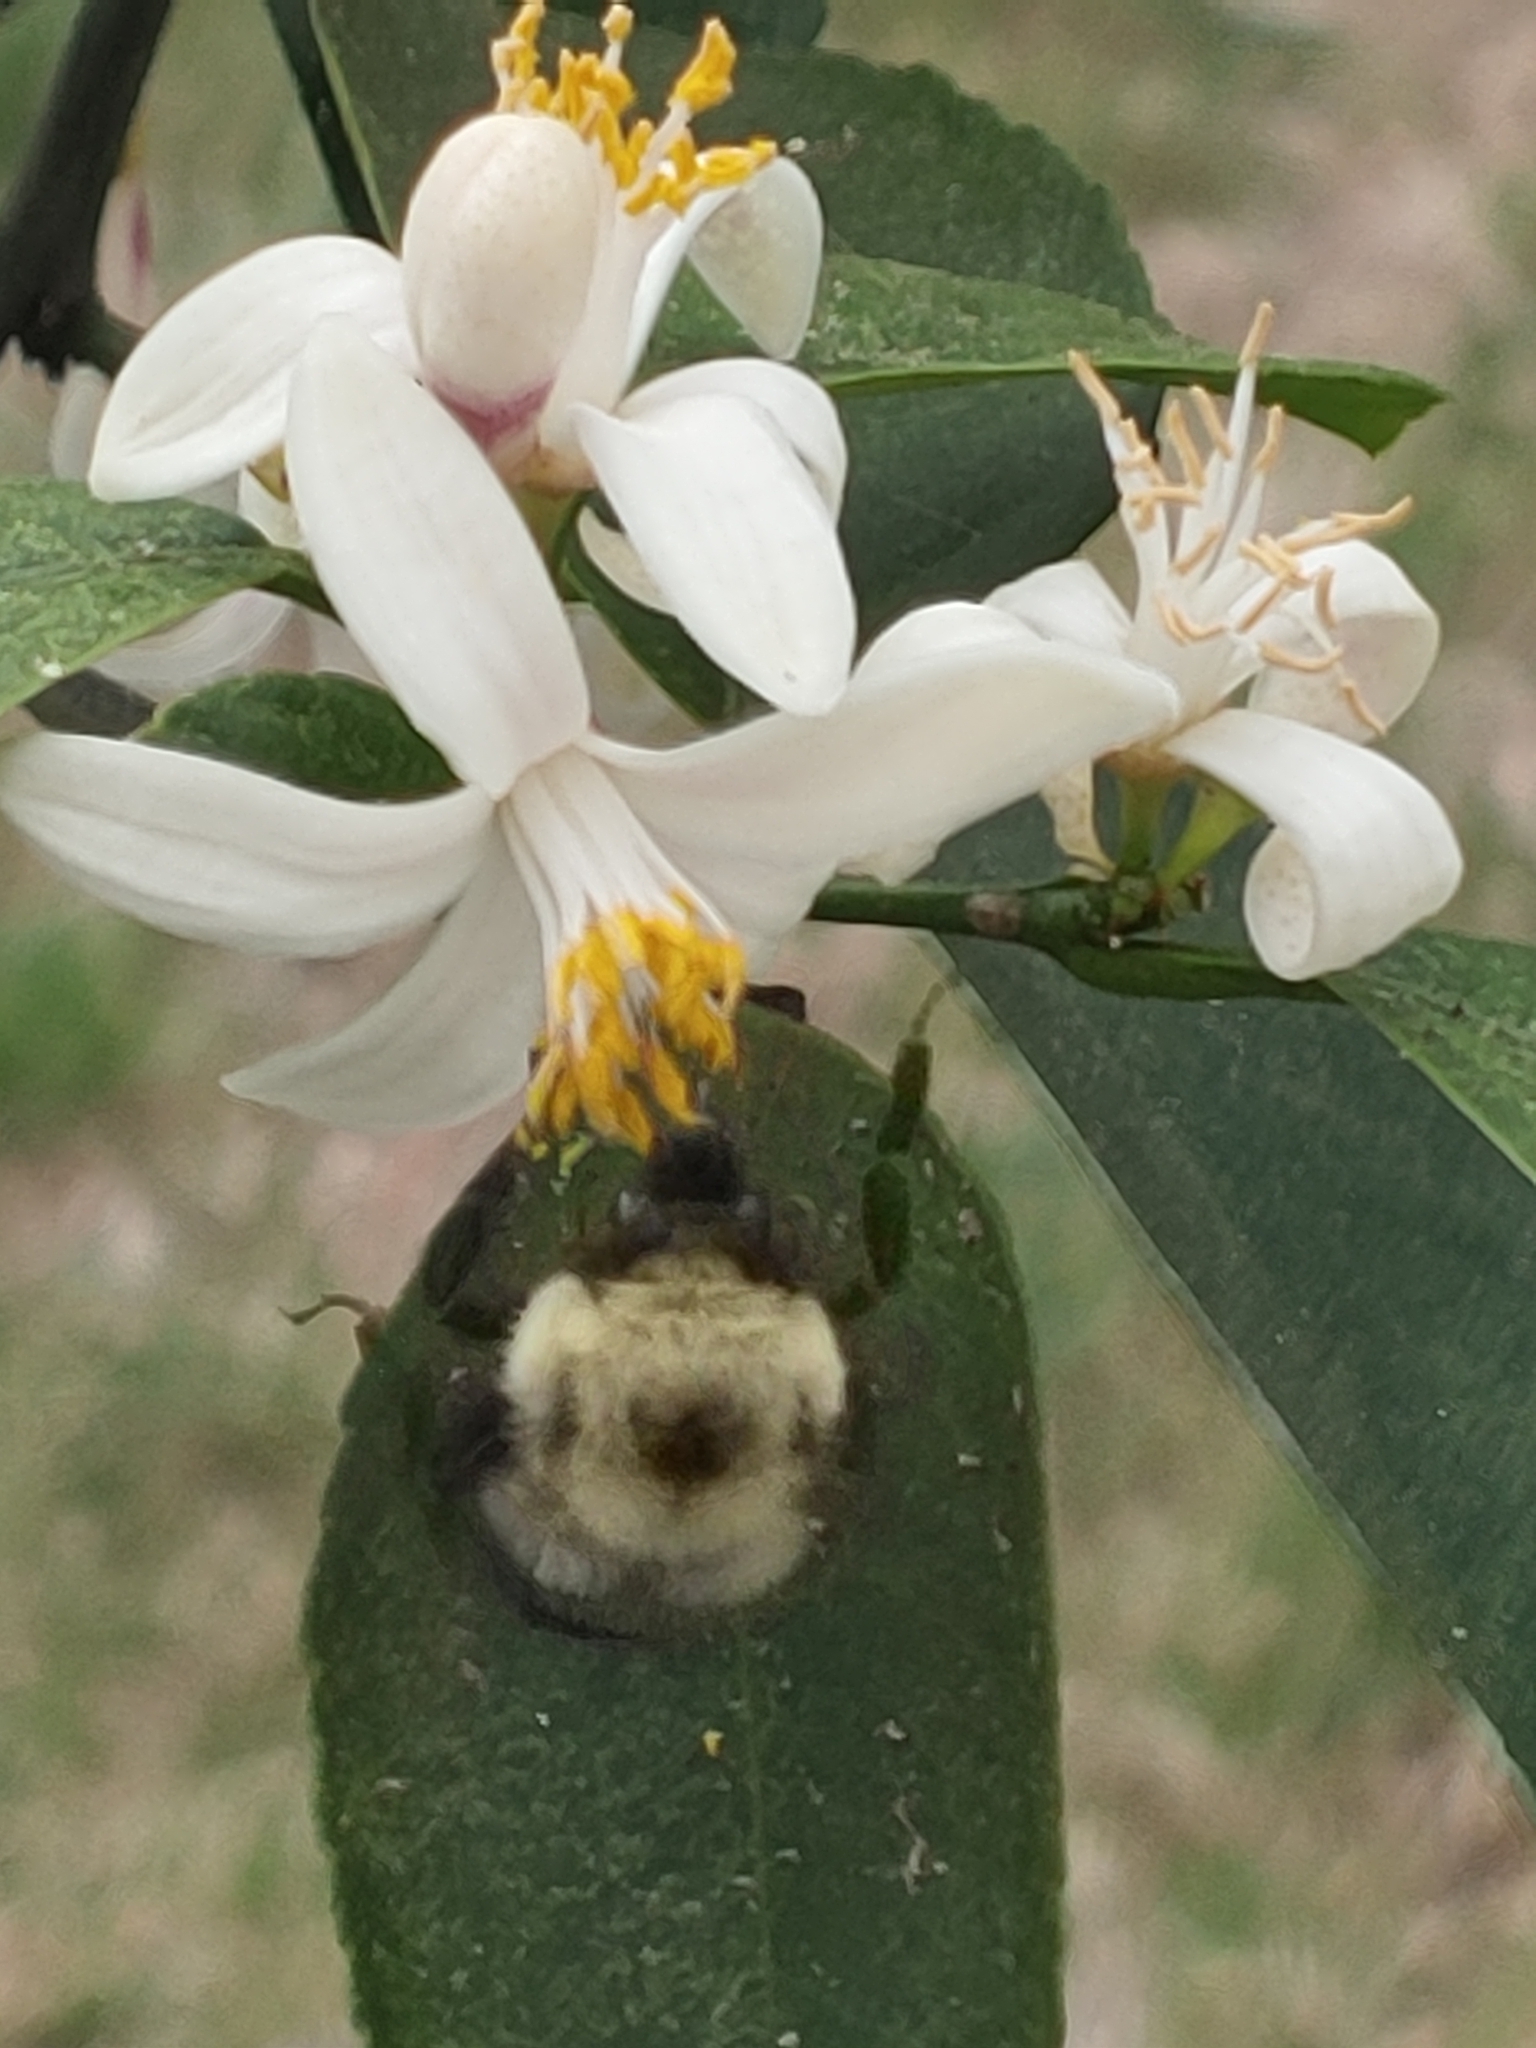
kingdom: Animalia
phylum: Arthropoda
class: Insecta
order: Hymenoptera
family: Apidae
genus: Bombus
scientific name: Bombus bimaculatus
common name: Two-spotted bumble bee
